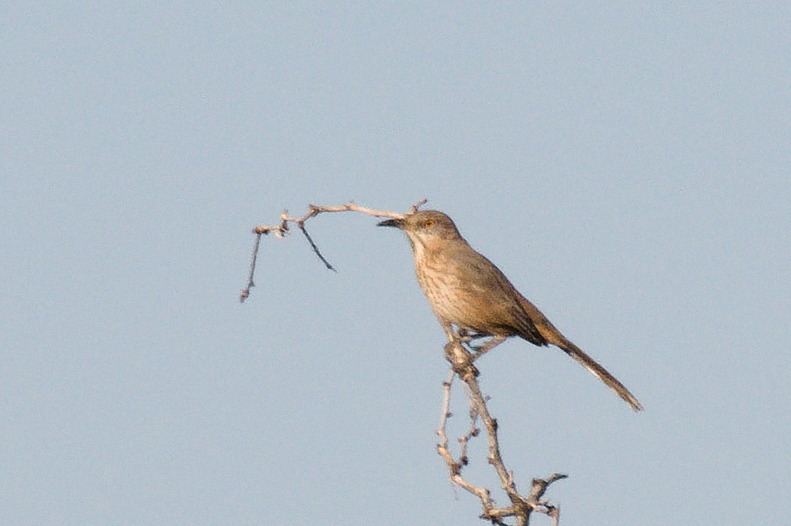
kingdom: Animalia
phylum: Chordata
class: Aves
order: Passeriformes
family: Mimidae
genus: Toxostoma
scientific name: Toxostoma bendirei
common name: Bendire's thrasher
